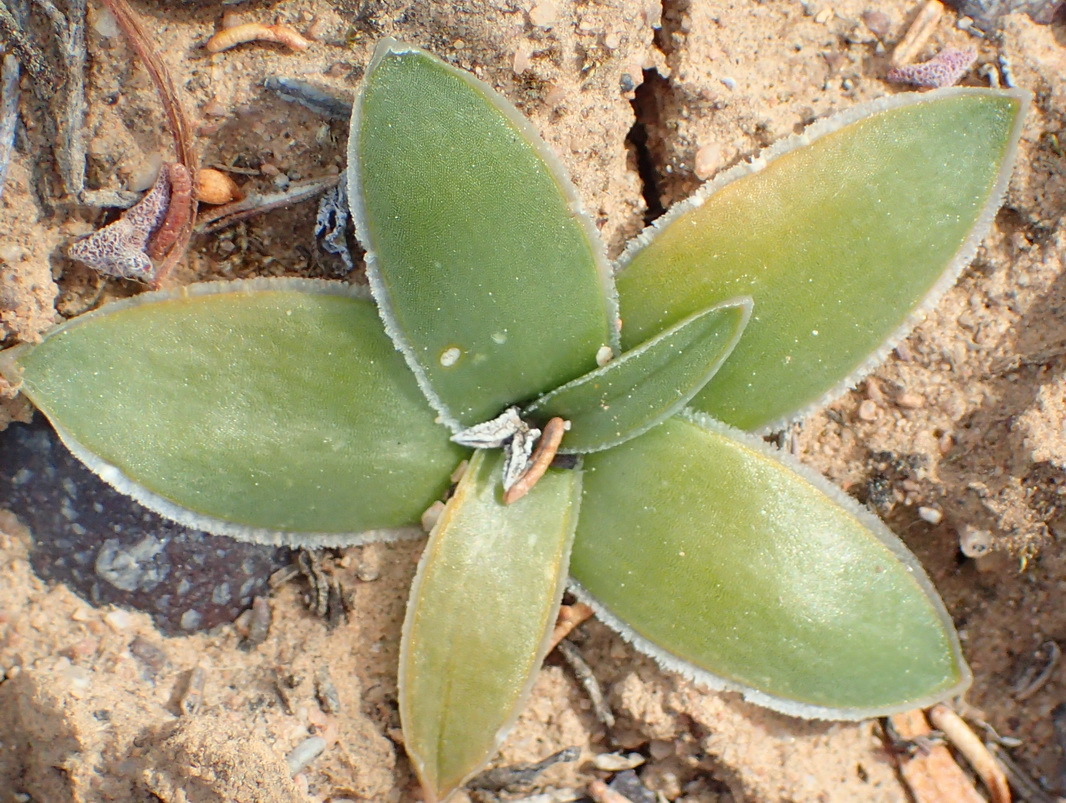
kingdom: Plantae
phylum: Tracheophyta
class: Liliopsida
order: Asparagales
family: Asparagaceae
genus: Drimia
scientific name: Drimia ciliata
